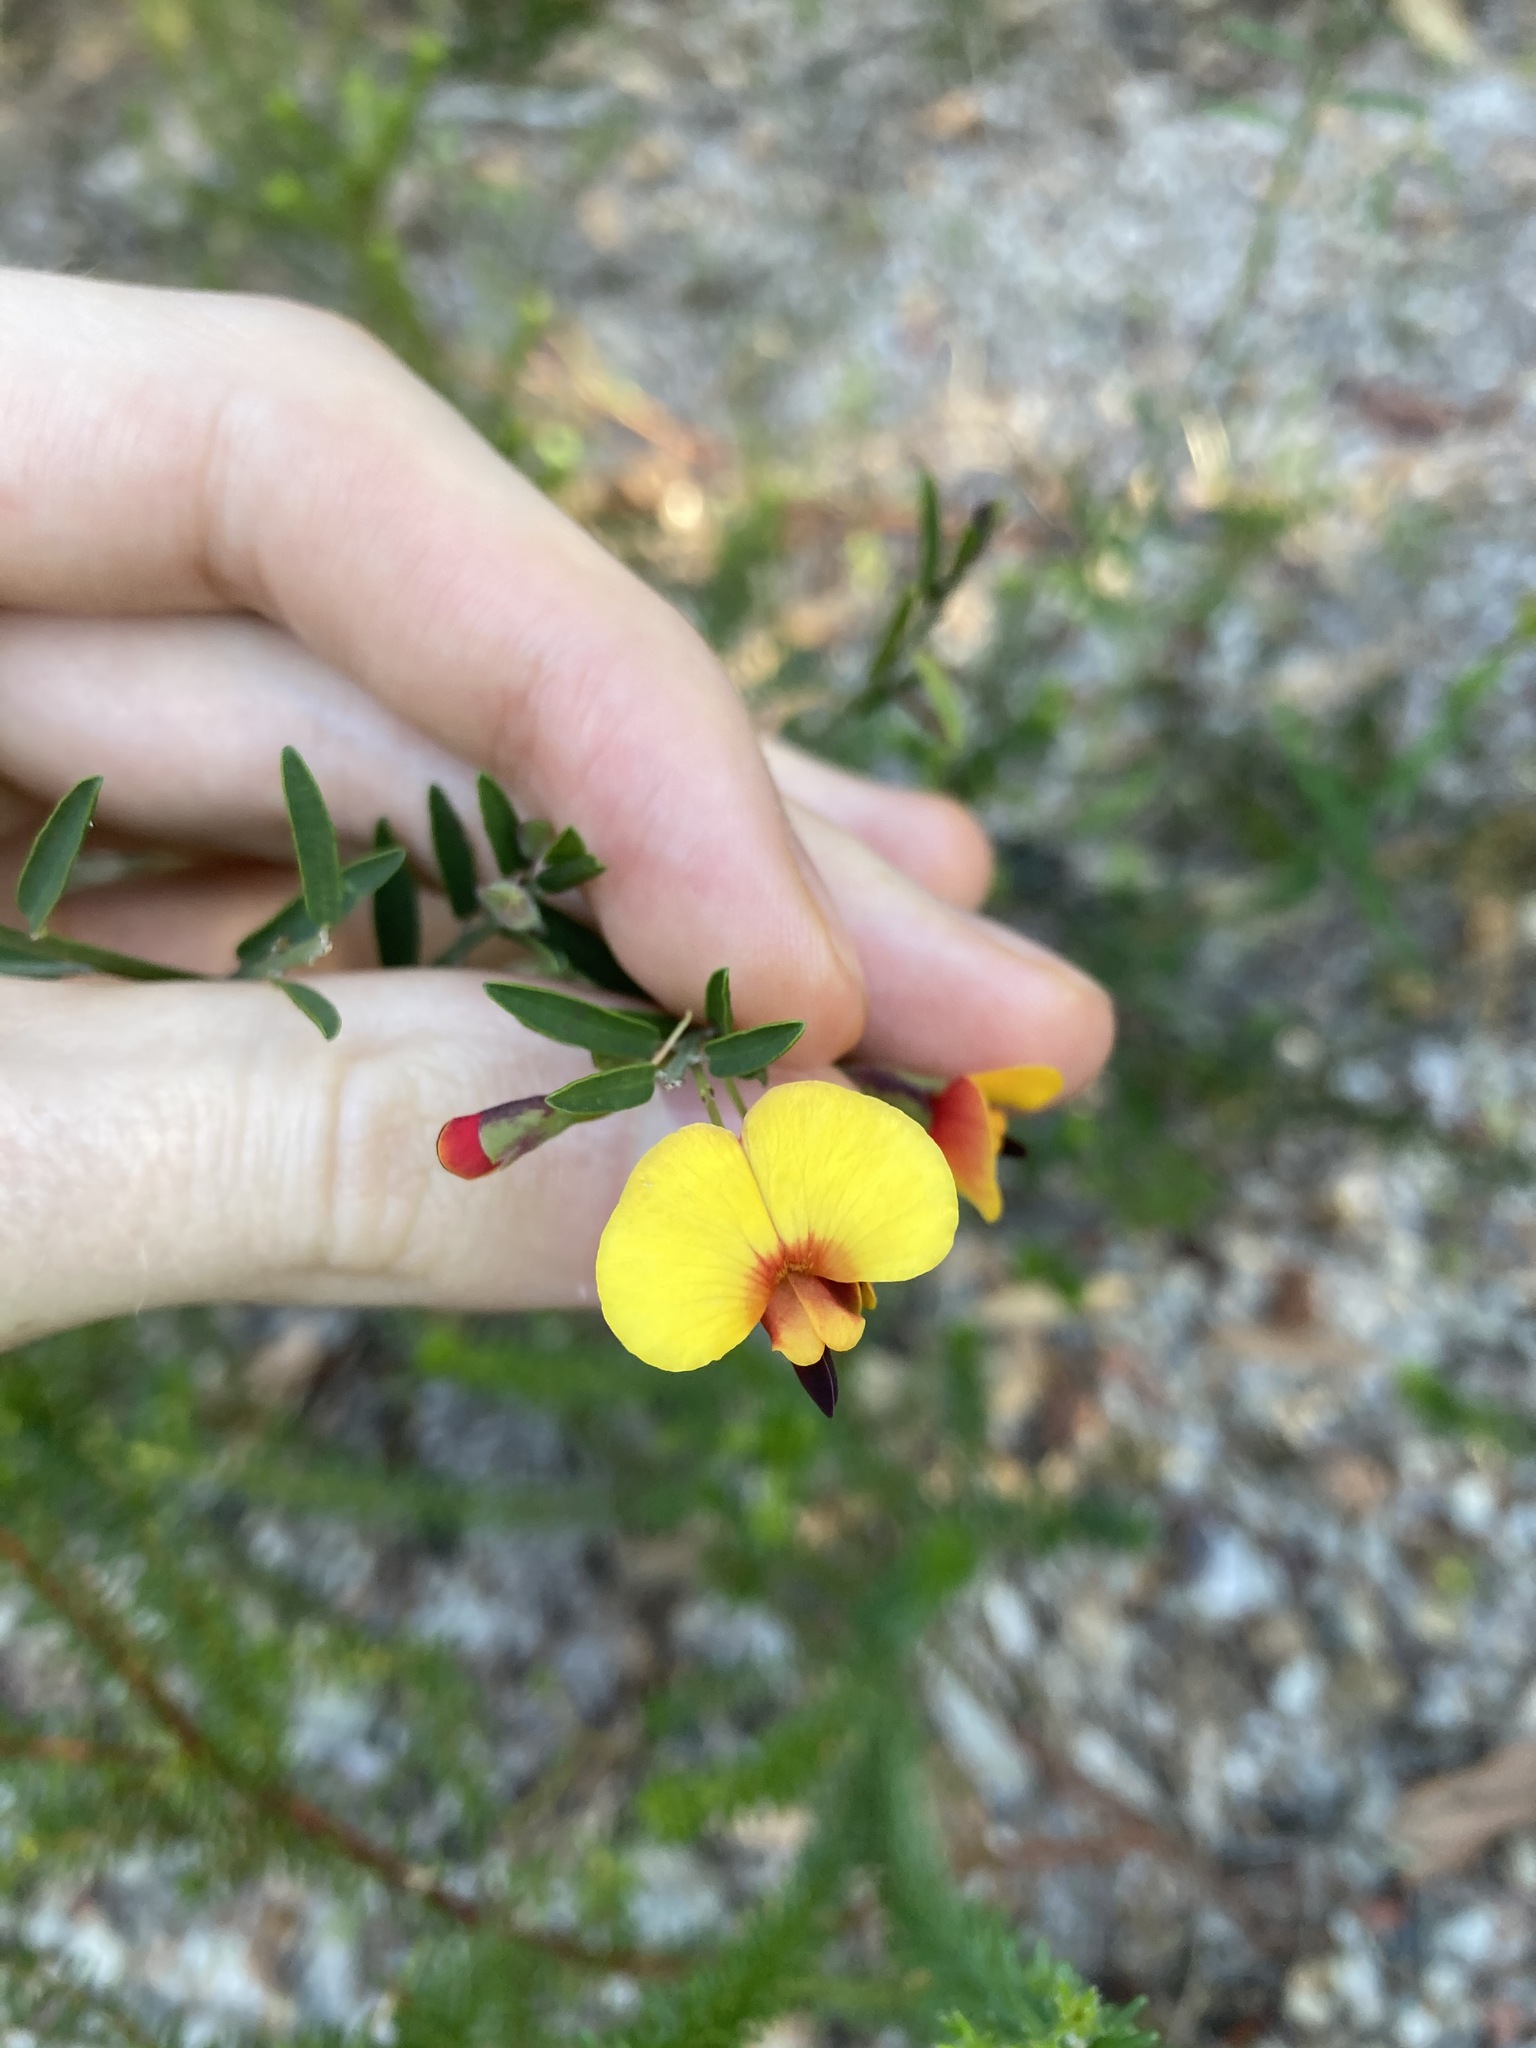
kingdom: Plantae
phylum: Tracheophyta
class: Magnoliopsida
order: Fabales
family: Fabaceae
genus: Bossiaea
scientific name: Bossiaea heterophylla
